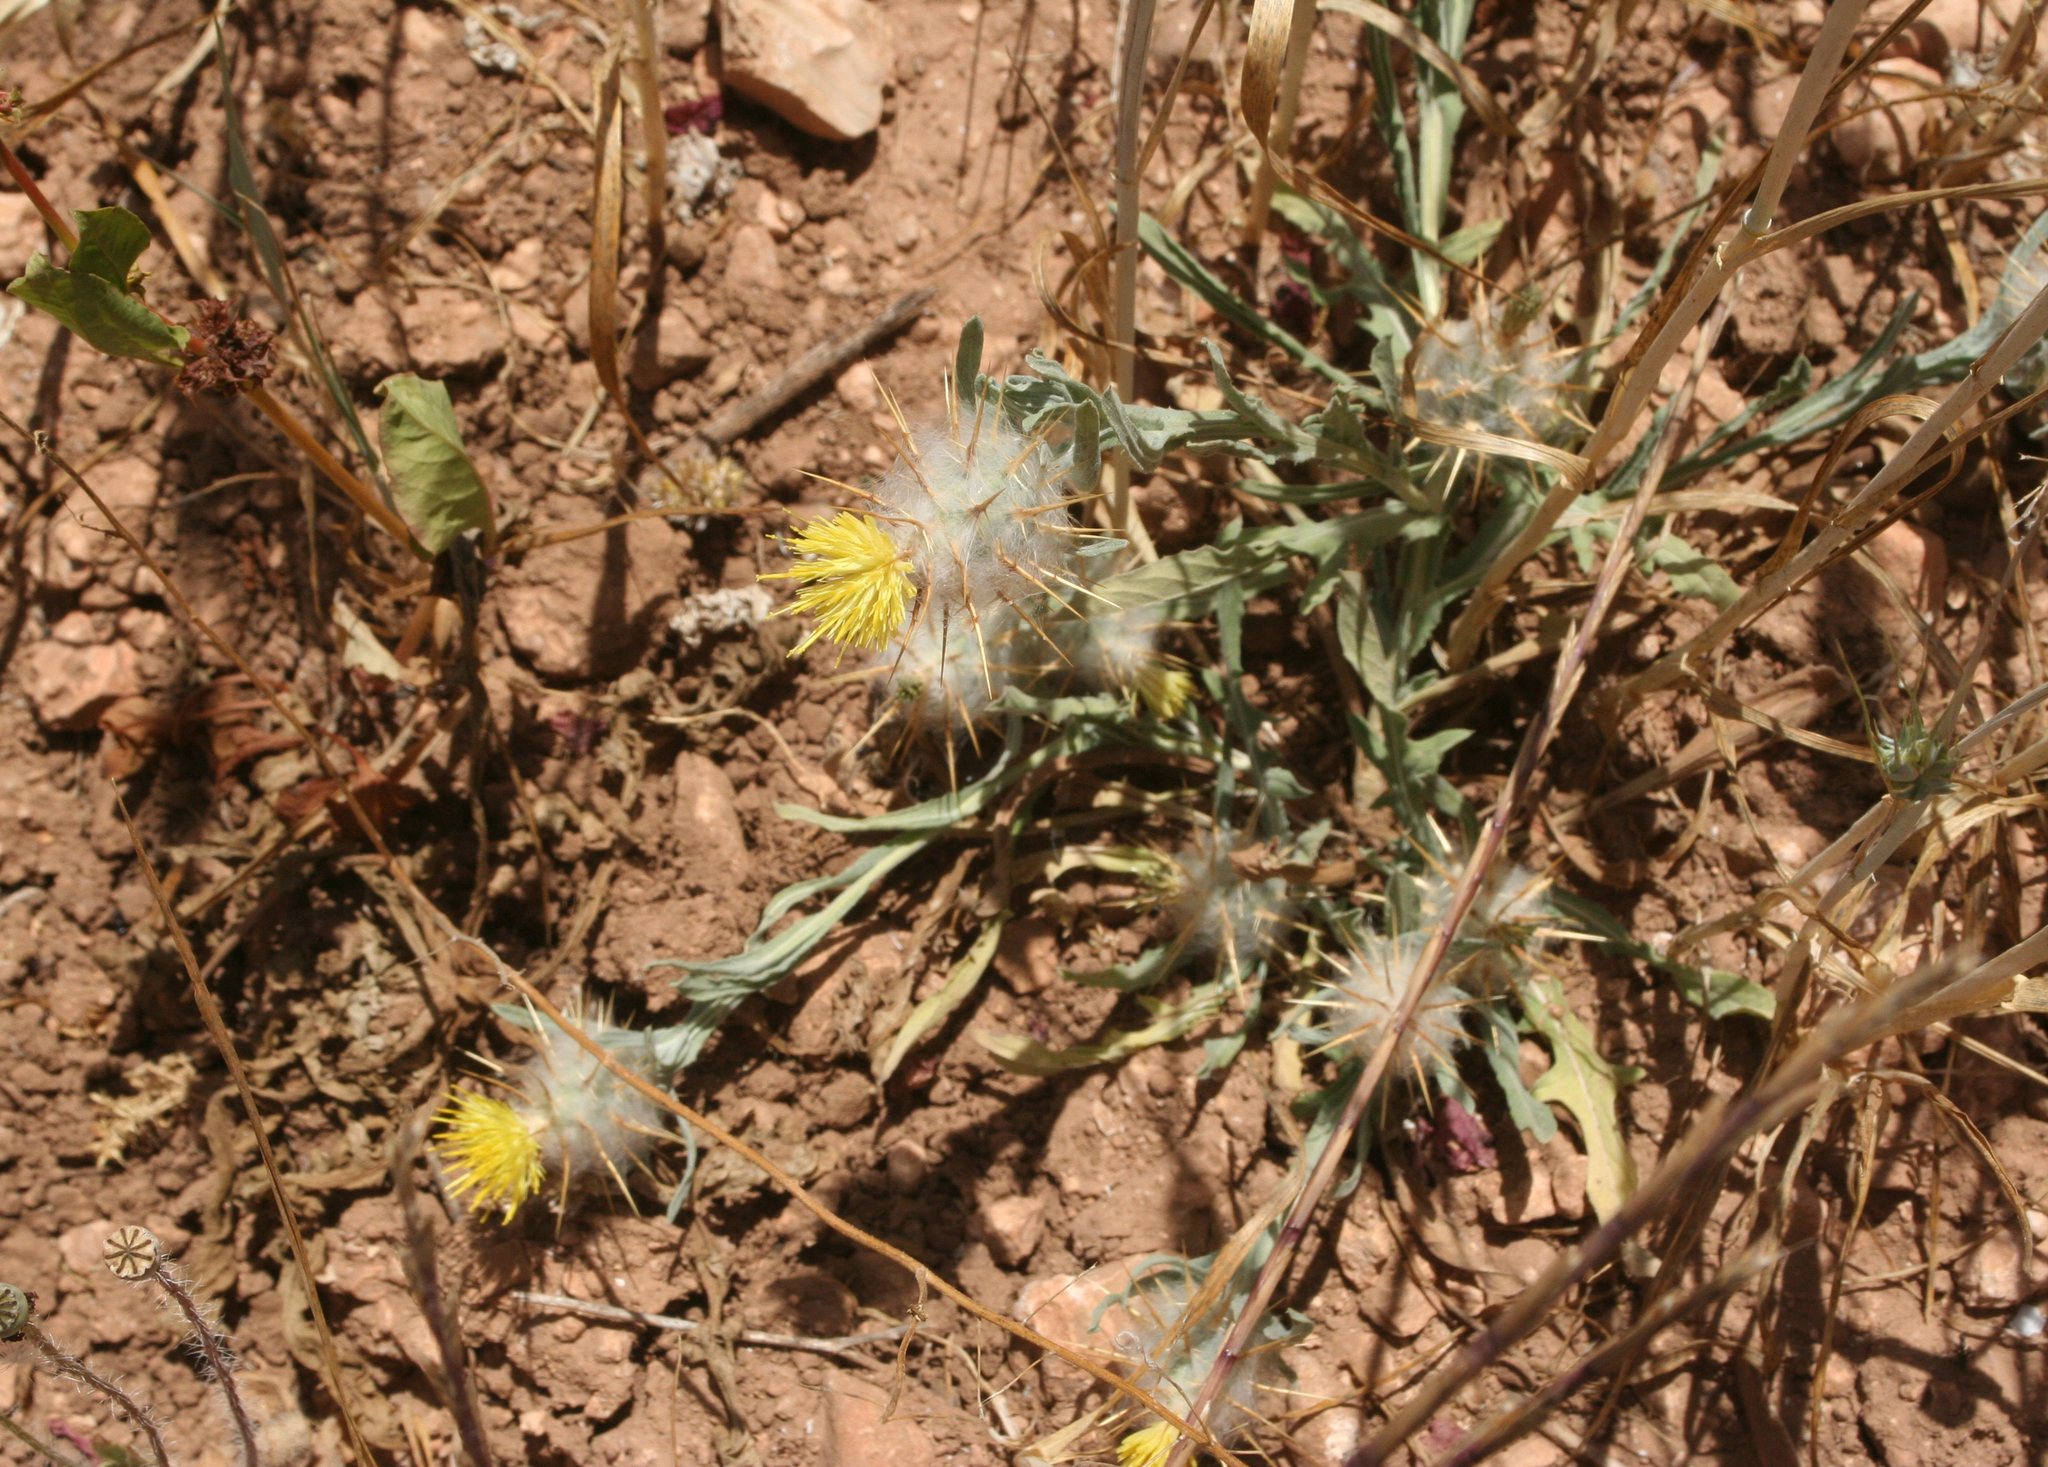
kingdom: Plantae
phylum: Tracheophyta
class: Magnoliopsida
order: Asterales
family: Asteraceae
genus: Centaurea
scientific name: Centaurea eriophora
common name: Wild sandheath
